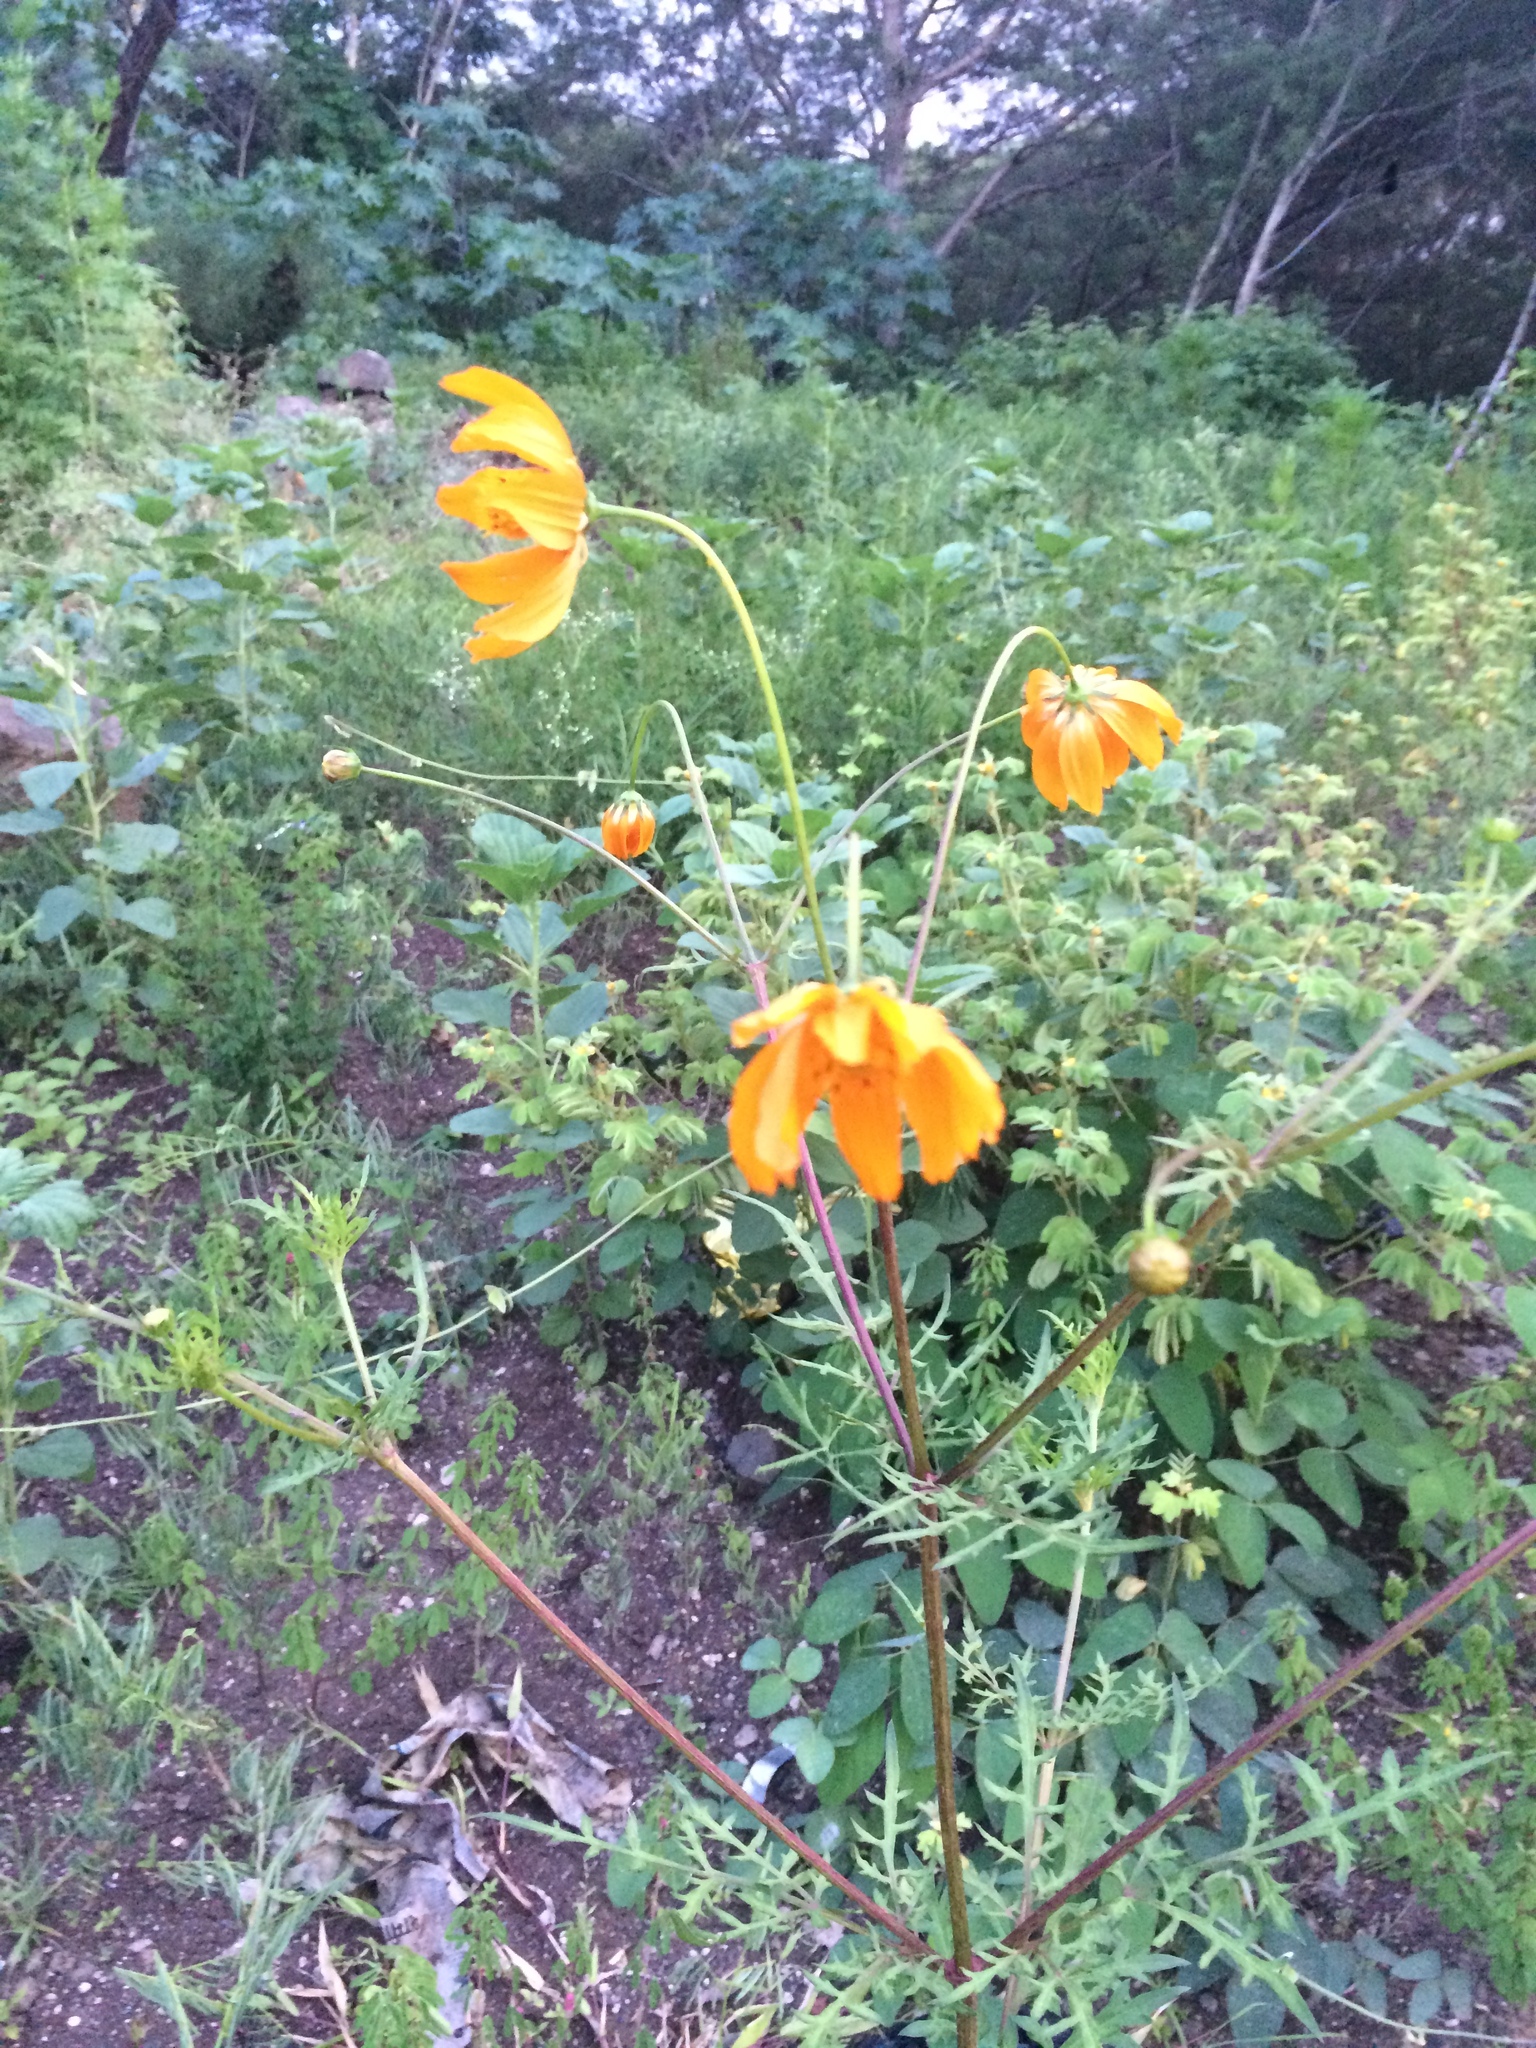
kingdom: Plantae
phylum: Tracheophyta
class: Magnoliopsida
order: Asterales
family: Asteraceae
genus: Cosmos
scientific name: Cosmos sulphureus
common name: Sulphur cosmos
